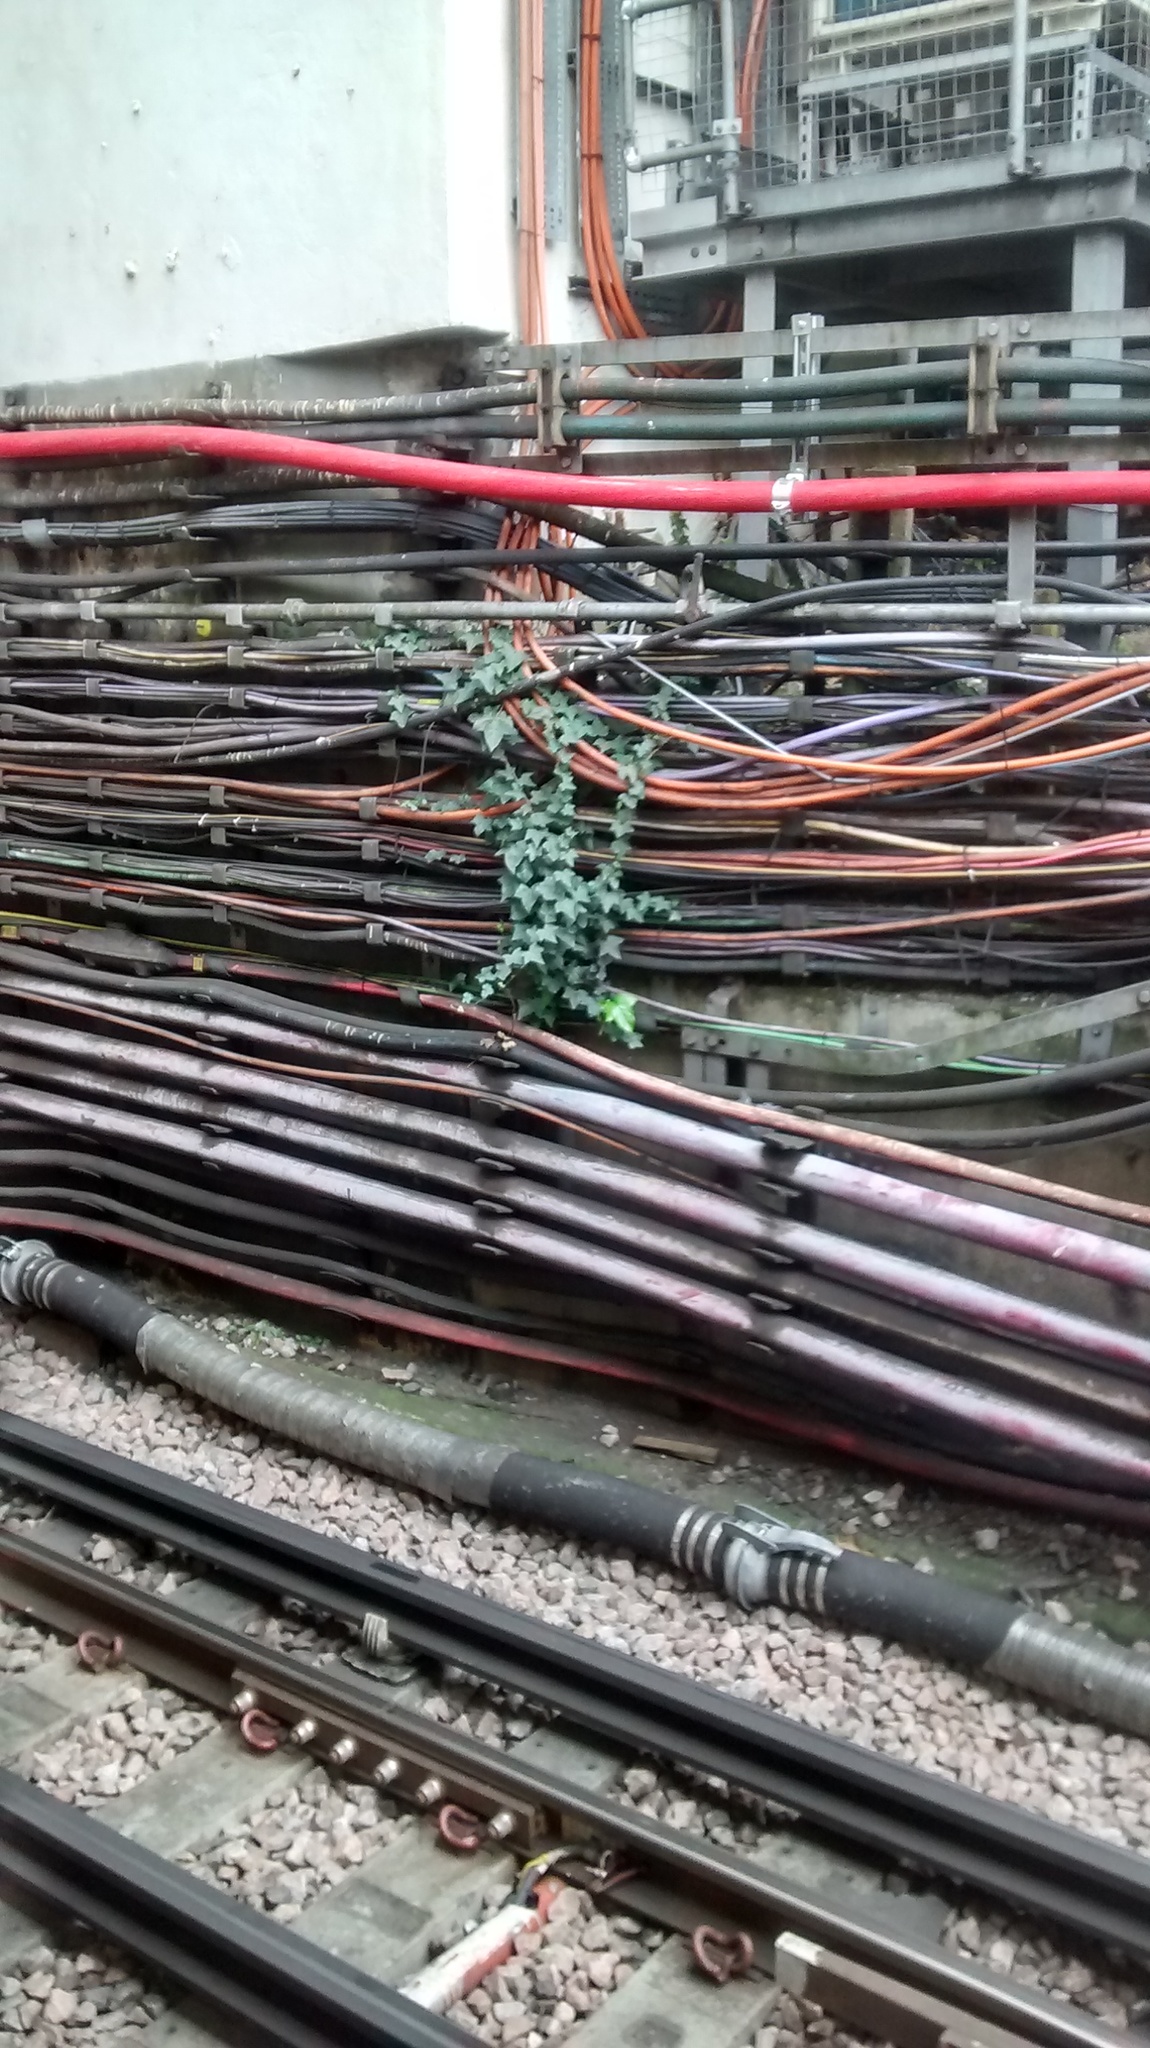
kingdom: Plantae
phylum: Tracheophyta
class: Magnoliopsida
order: Apiales
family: Araliaceae
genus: Hedera
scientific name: Hedera helix
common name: Ivy
